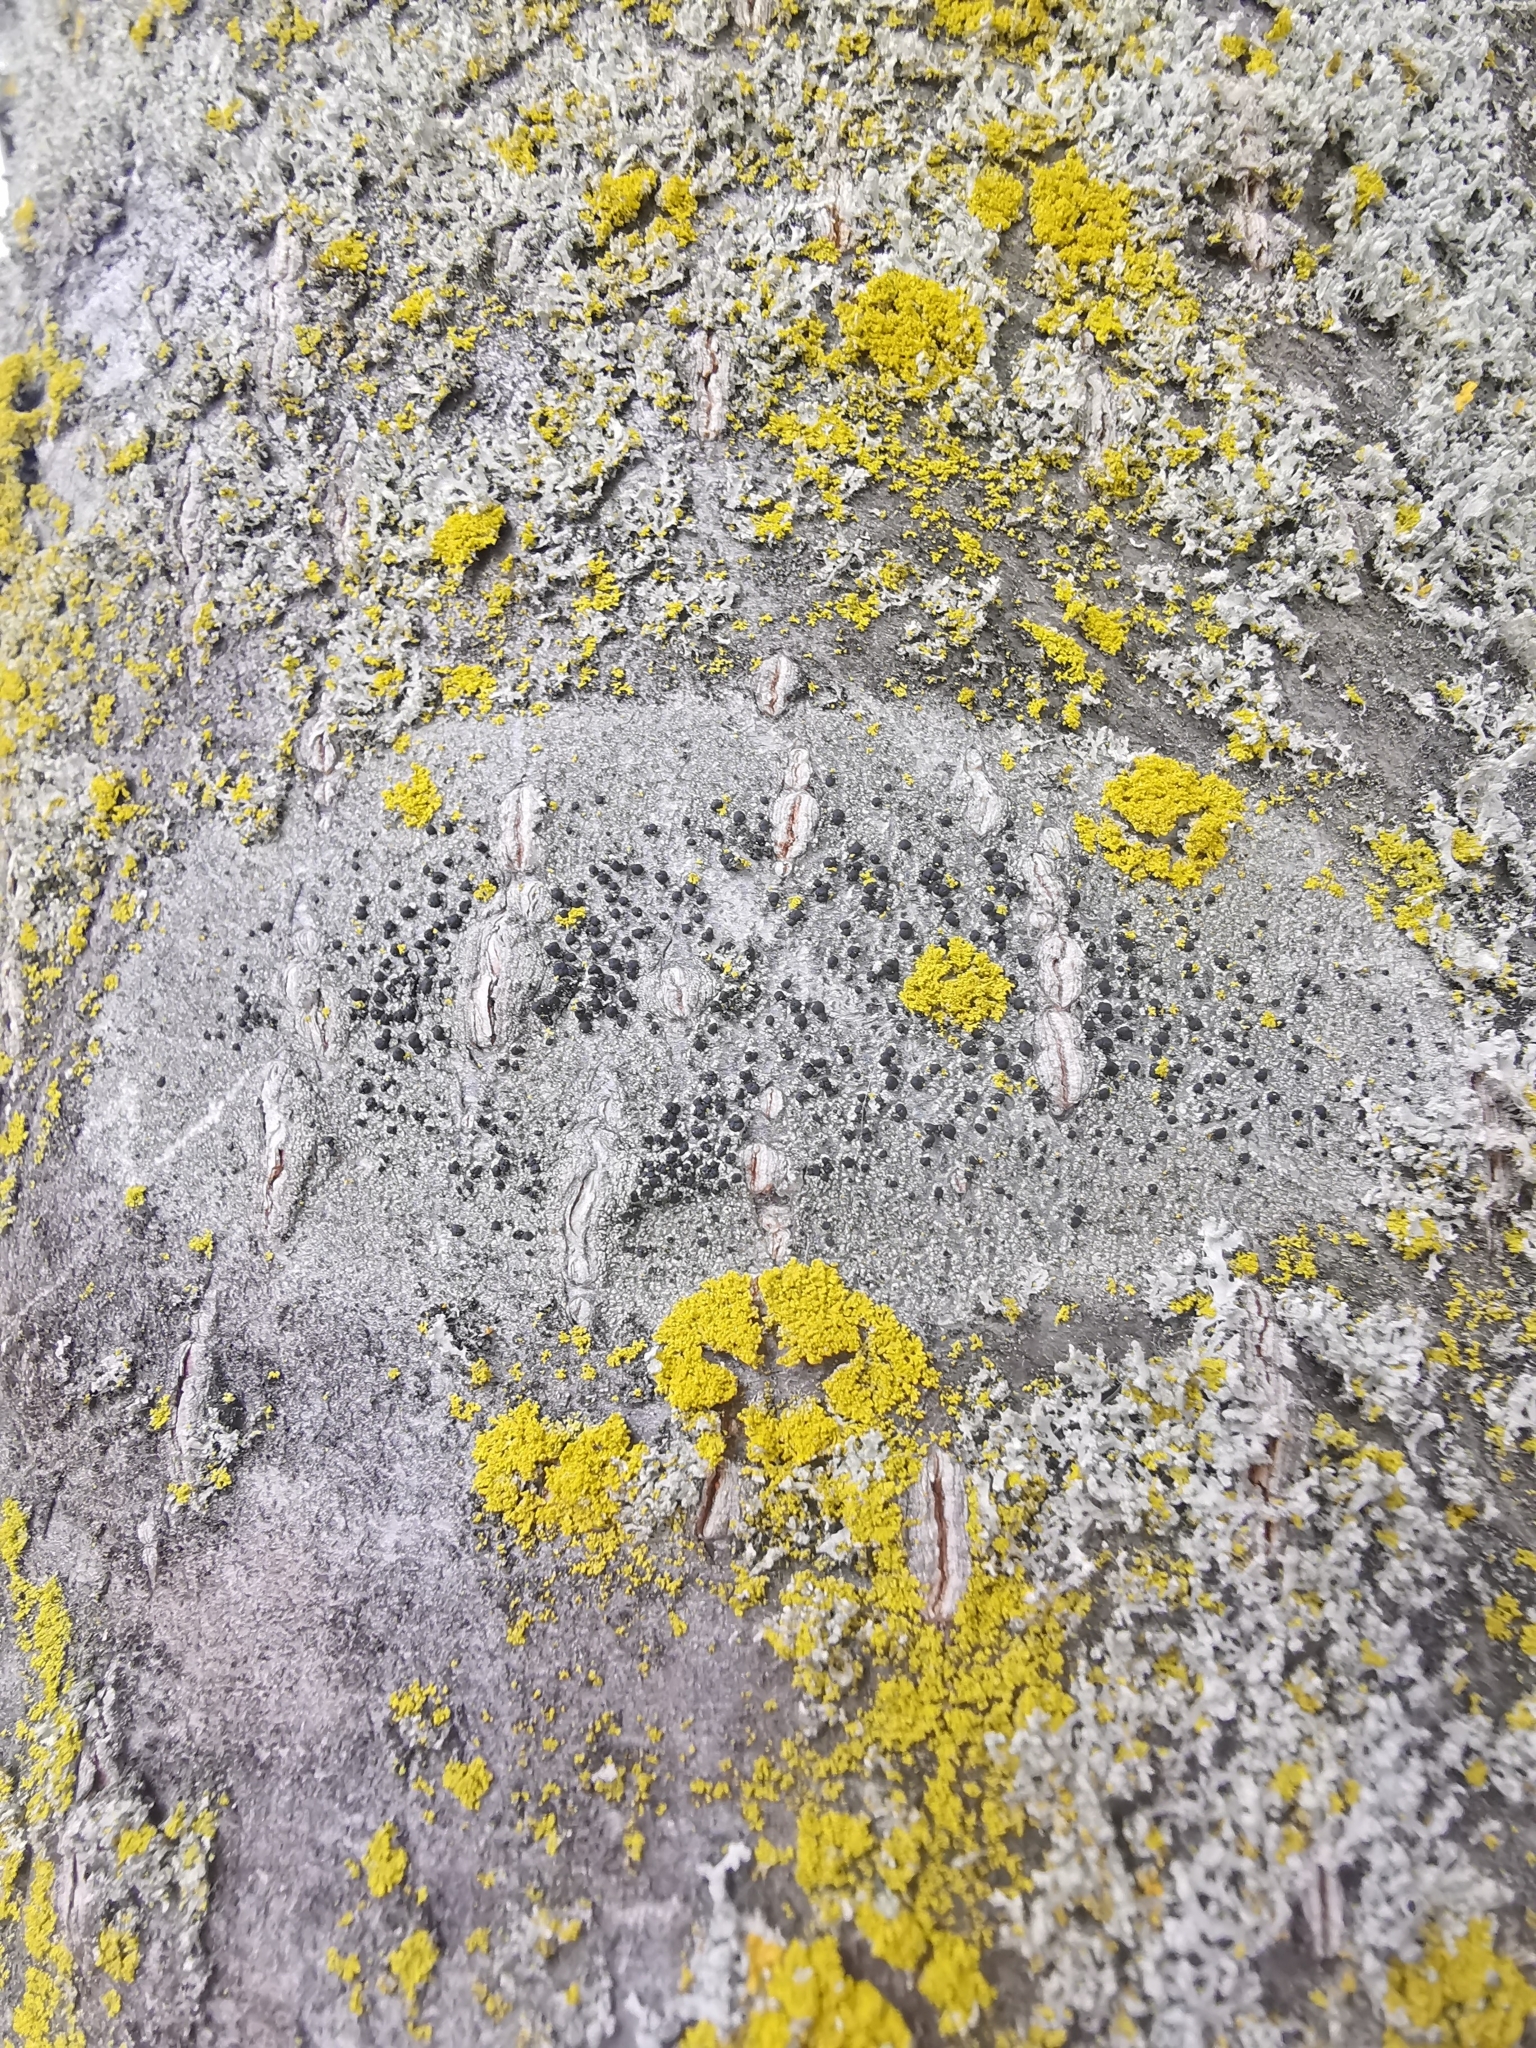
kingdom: Fungi
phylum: Ascomycota
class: Lecanoromycetes
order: Lecanorales
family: Lecanoraceae
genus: Lecidella
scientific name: Lecidella elaeochroma
